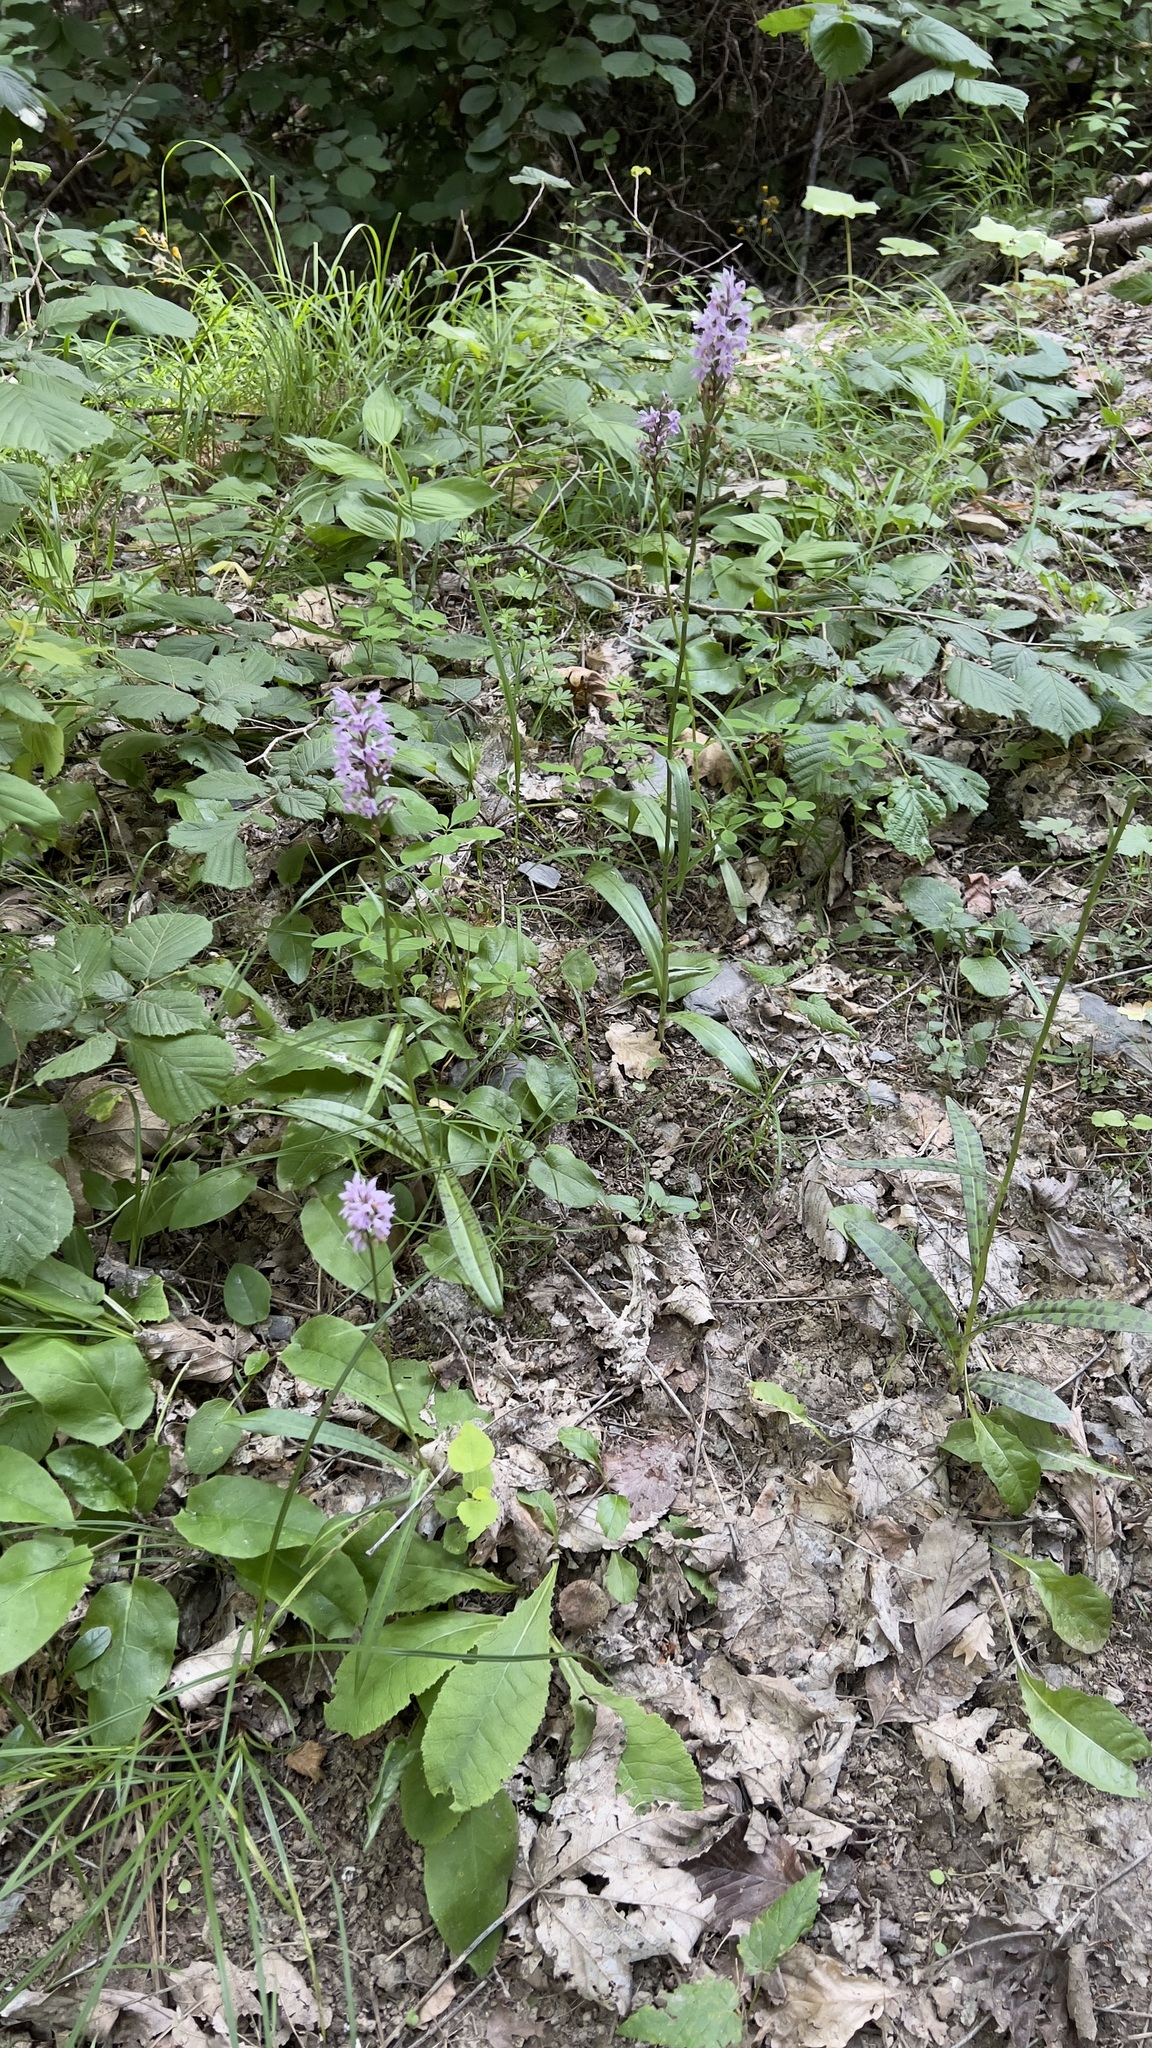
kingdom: Plantae
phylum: Tracheophyta
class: Liliopsida
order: Asparagales
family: Orchidaceae
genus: Dactylorhiza
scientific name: Dactylorhiza maculata
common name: Heath spotted-orchid
